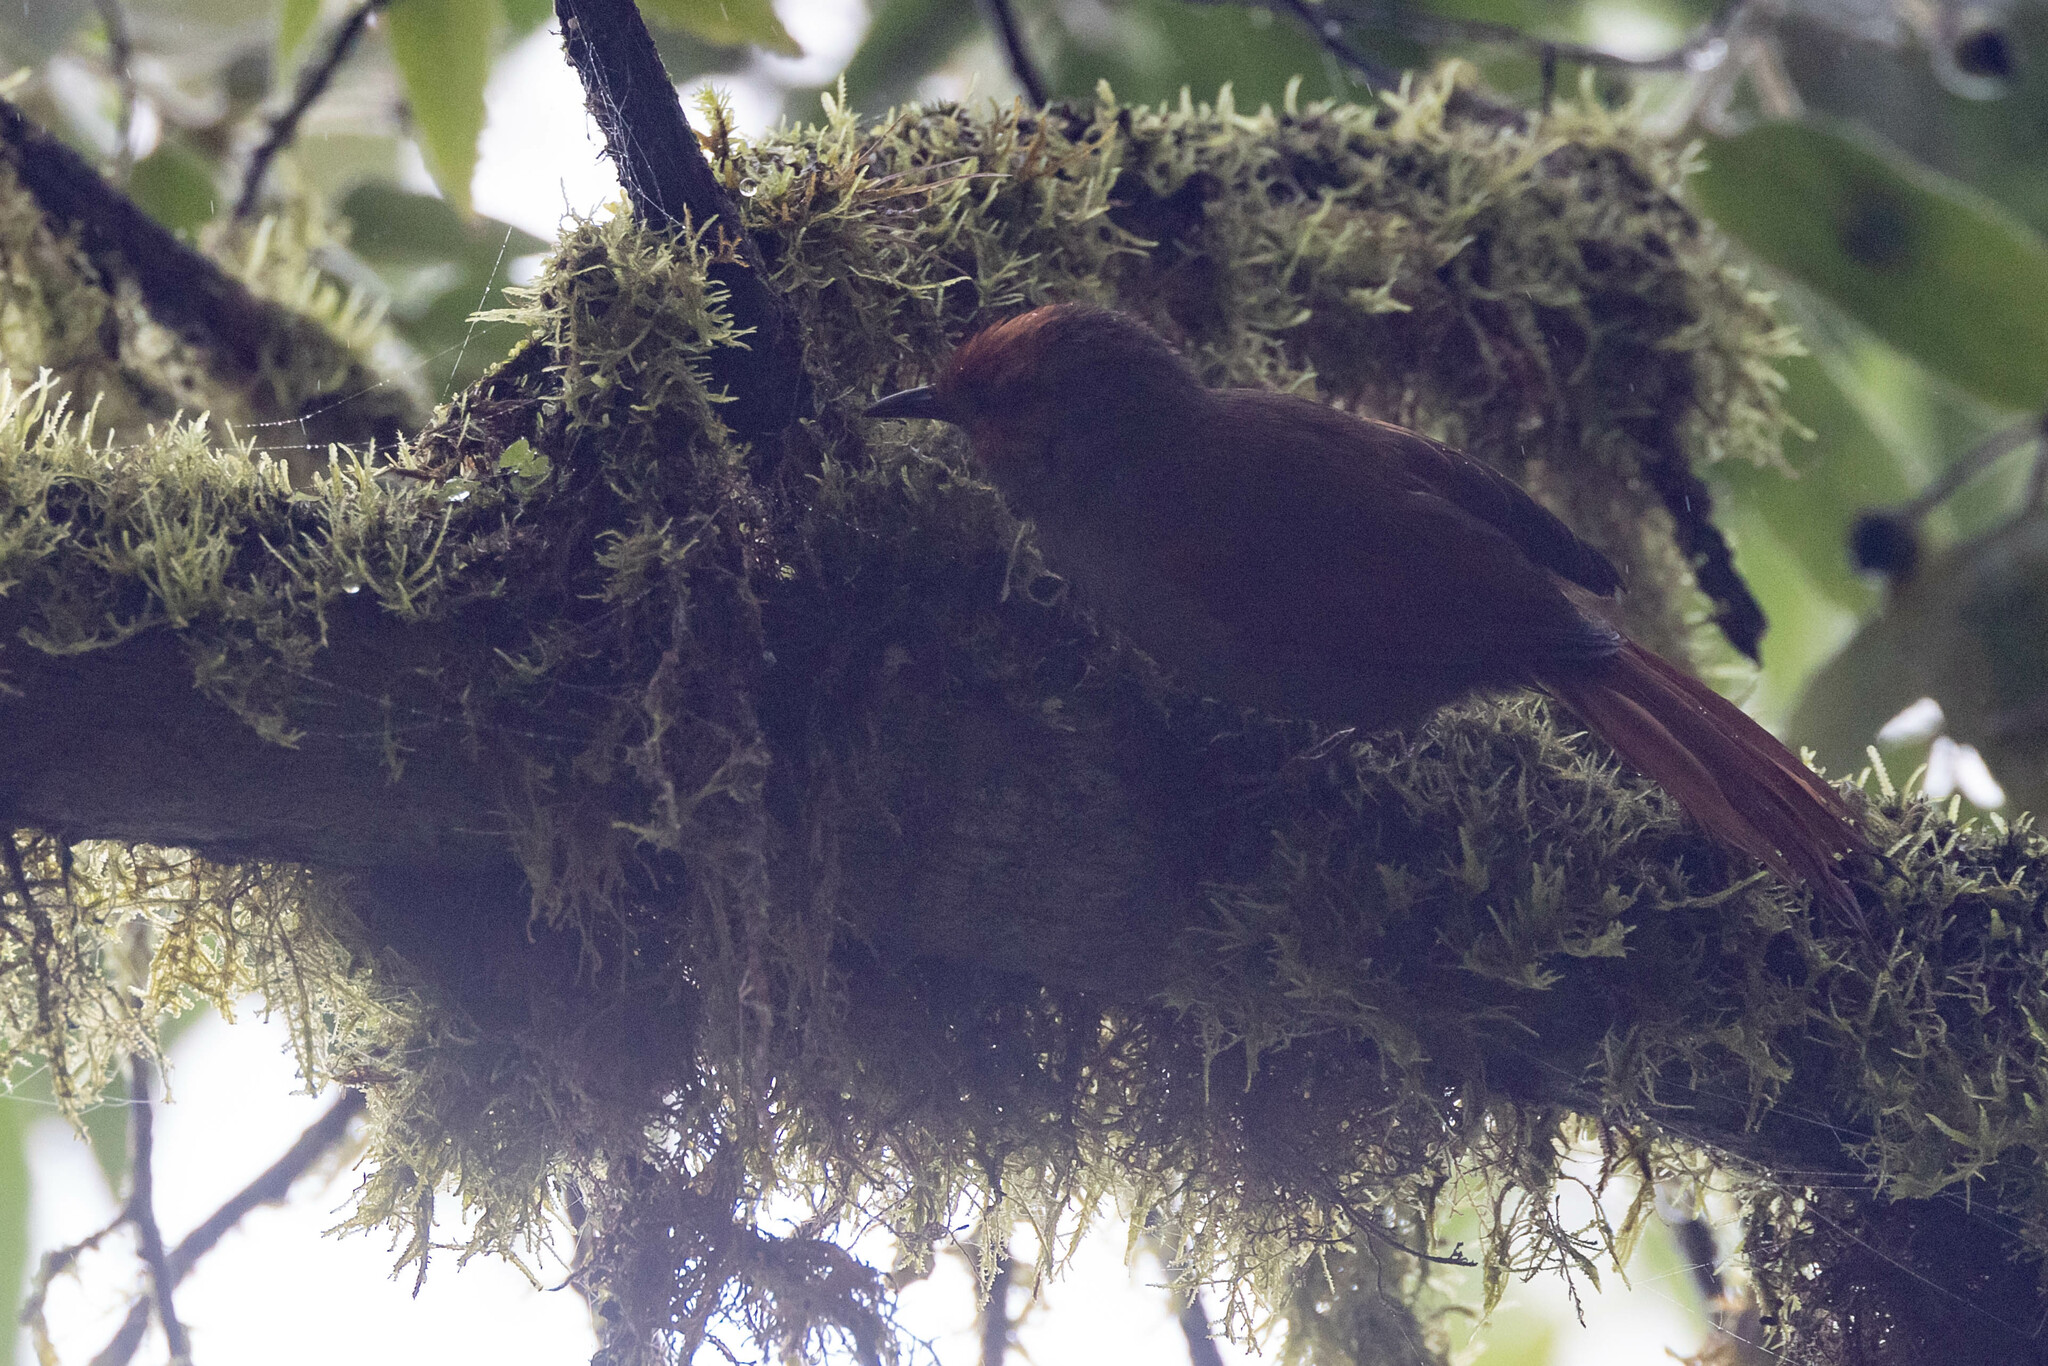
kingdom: Animalia
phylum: Chordata
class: Aves
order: Passeriformes
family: Furnariidae
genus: Cranioleuca
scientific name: Cranioleuca erythrops
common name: Red-faced spinetail
